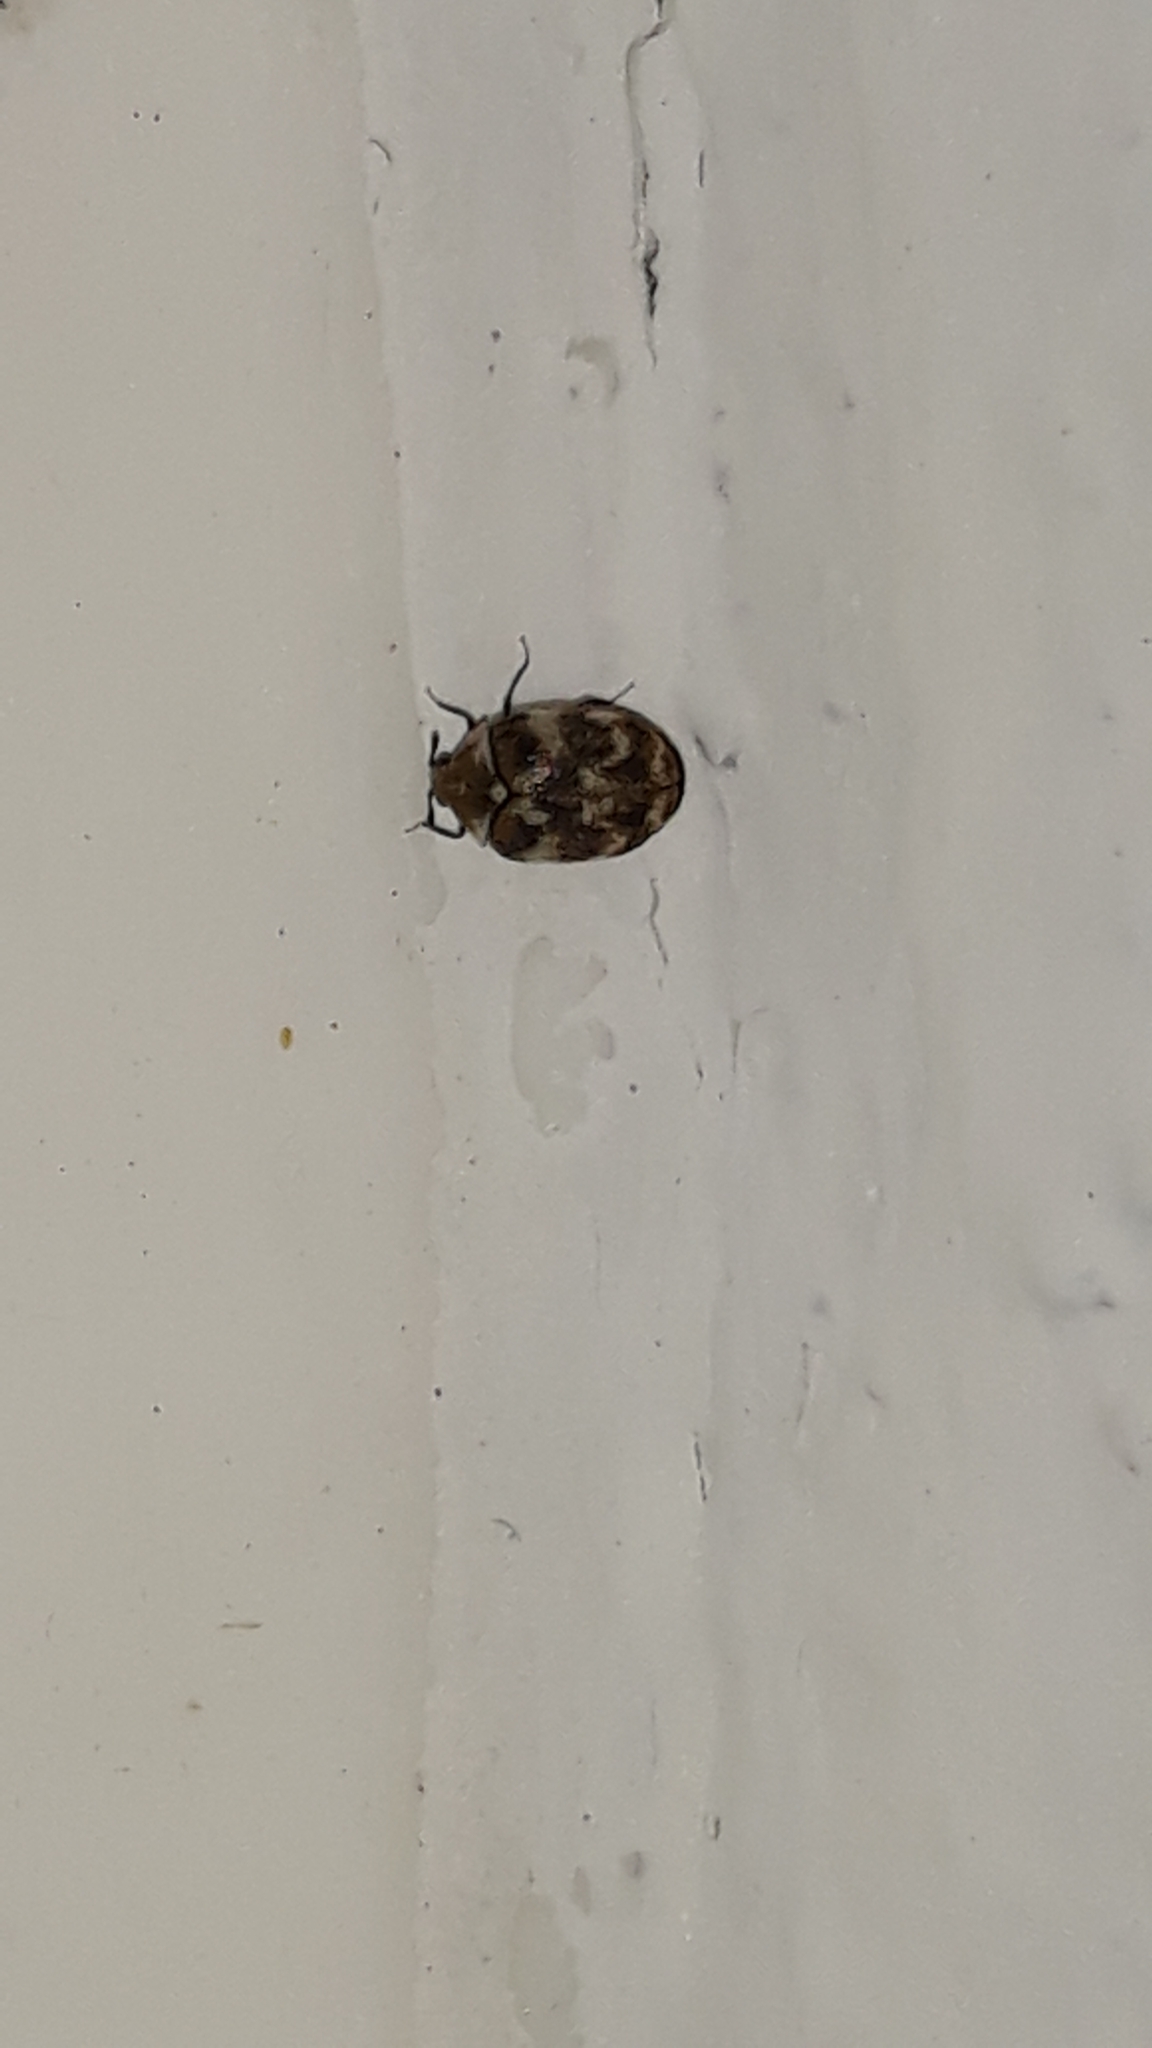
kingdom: Animalia
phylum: Arthropoda
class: Insecta
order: Coleoptera
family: Dermestidae
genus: Anthrenus
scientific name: Anthrenus verbasci
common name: Varied carpet beetle
